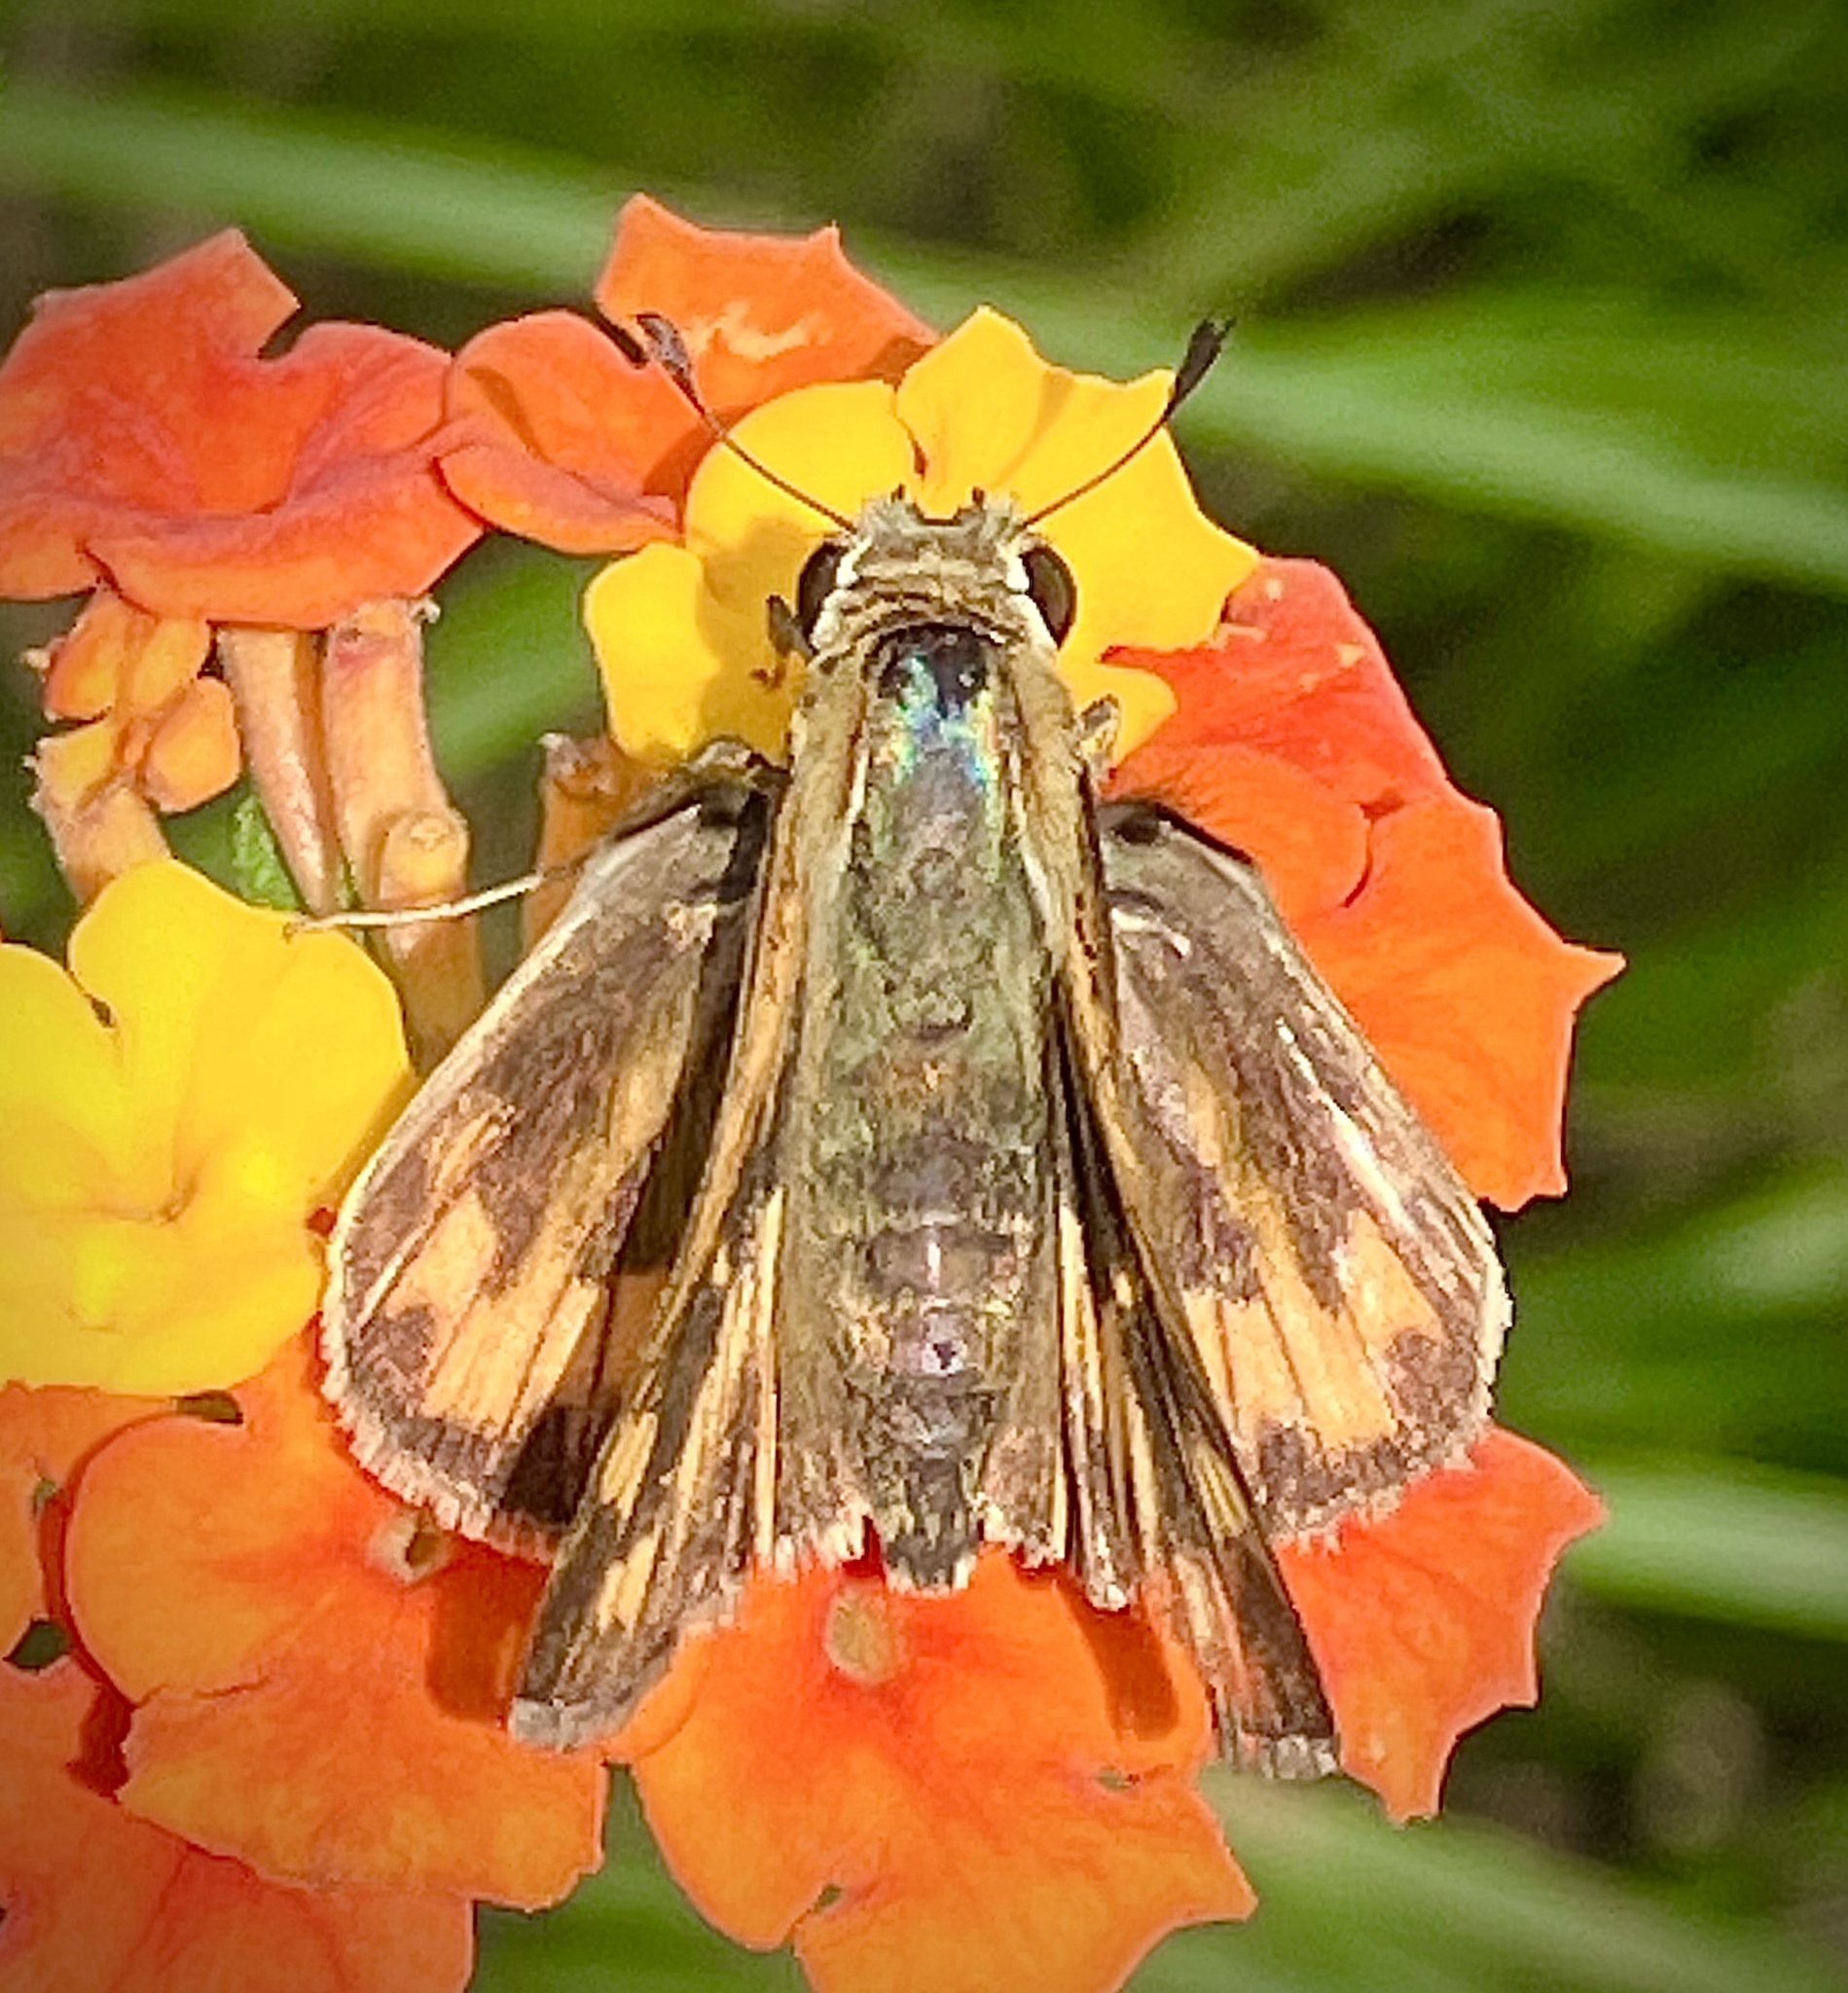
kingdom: Animalia
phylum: Arthropoda
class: Insecta
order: Lepidoptera
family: Hesperiidae
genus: Hylephila
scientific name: Hylephila phyleus
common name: Fiery skipper
